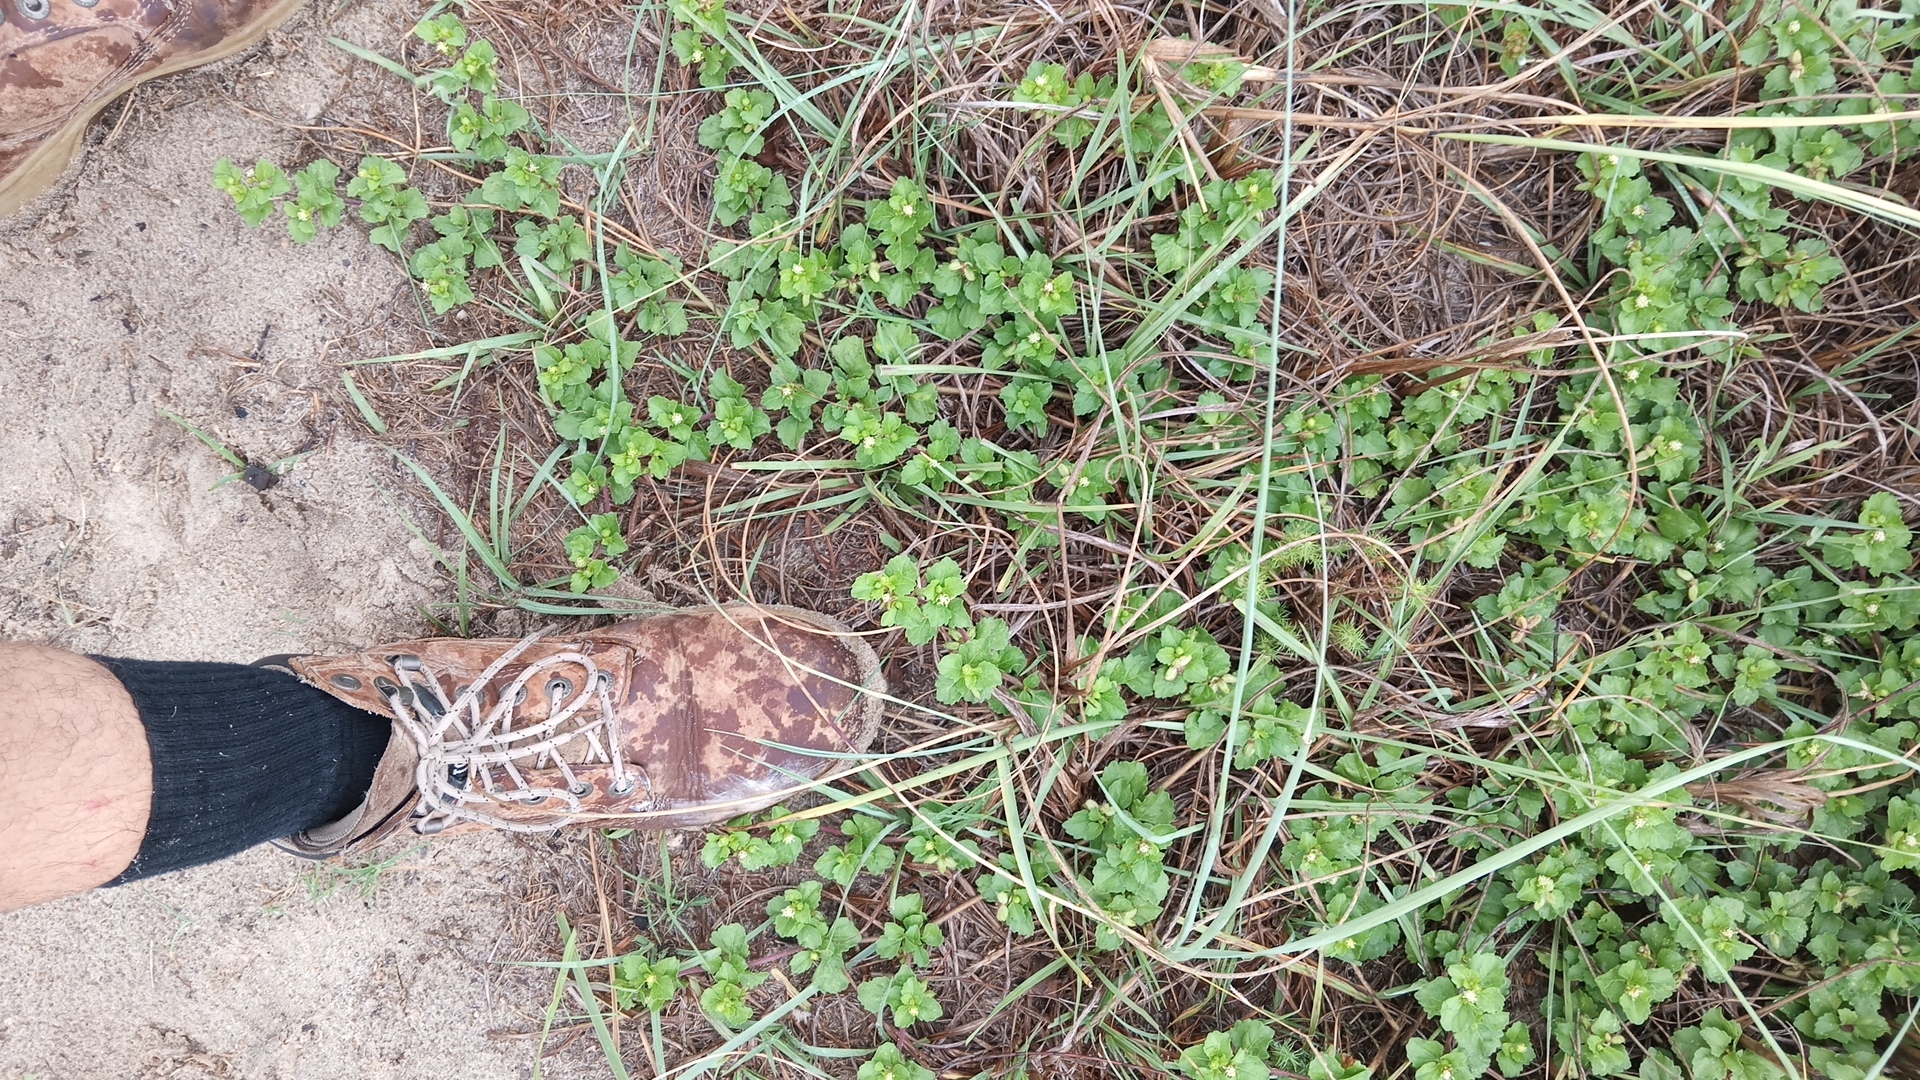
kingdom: Plantae
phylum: Tracheophyta
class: Magnoliopsida
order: Asterales
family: Asteraceae
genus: Acanthospermum
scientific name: Acanthospermum australe
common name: Paraguayan starbur
